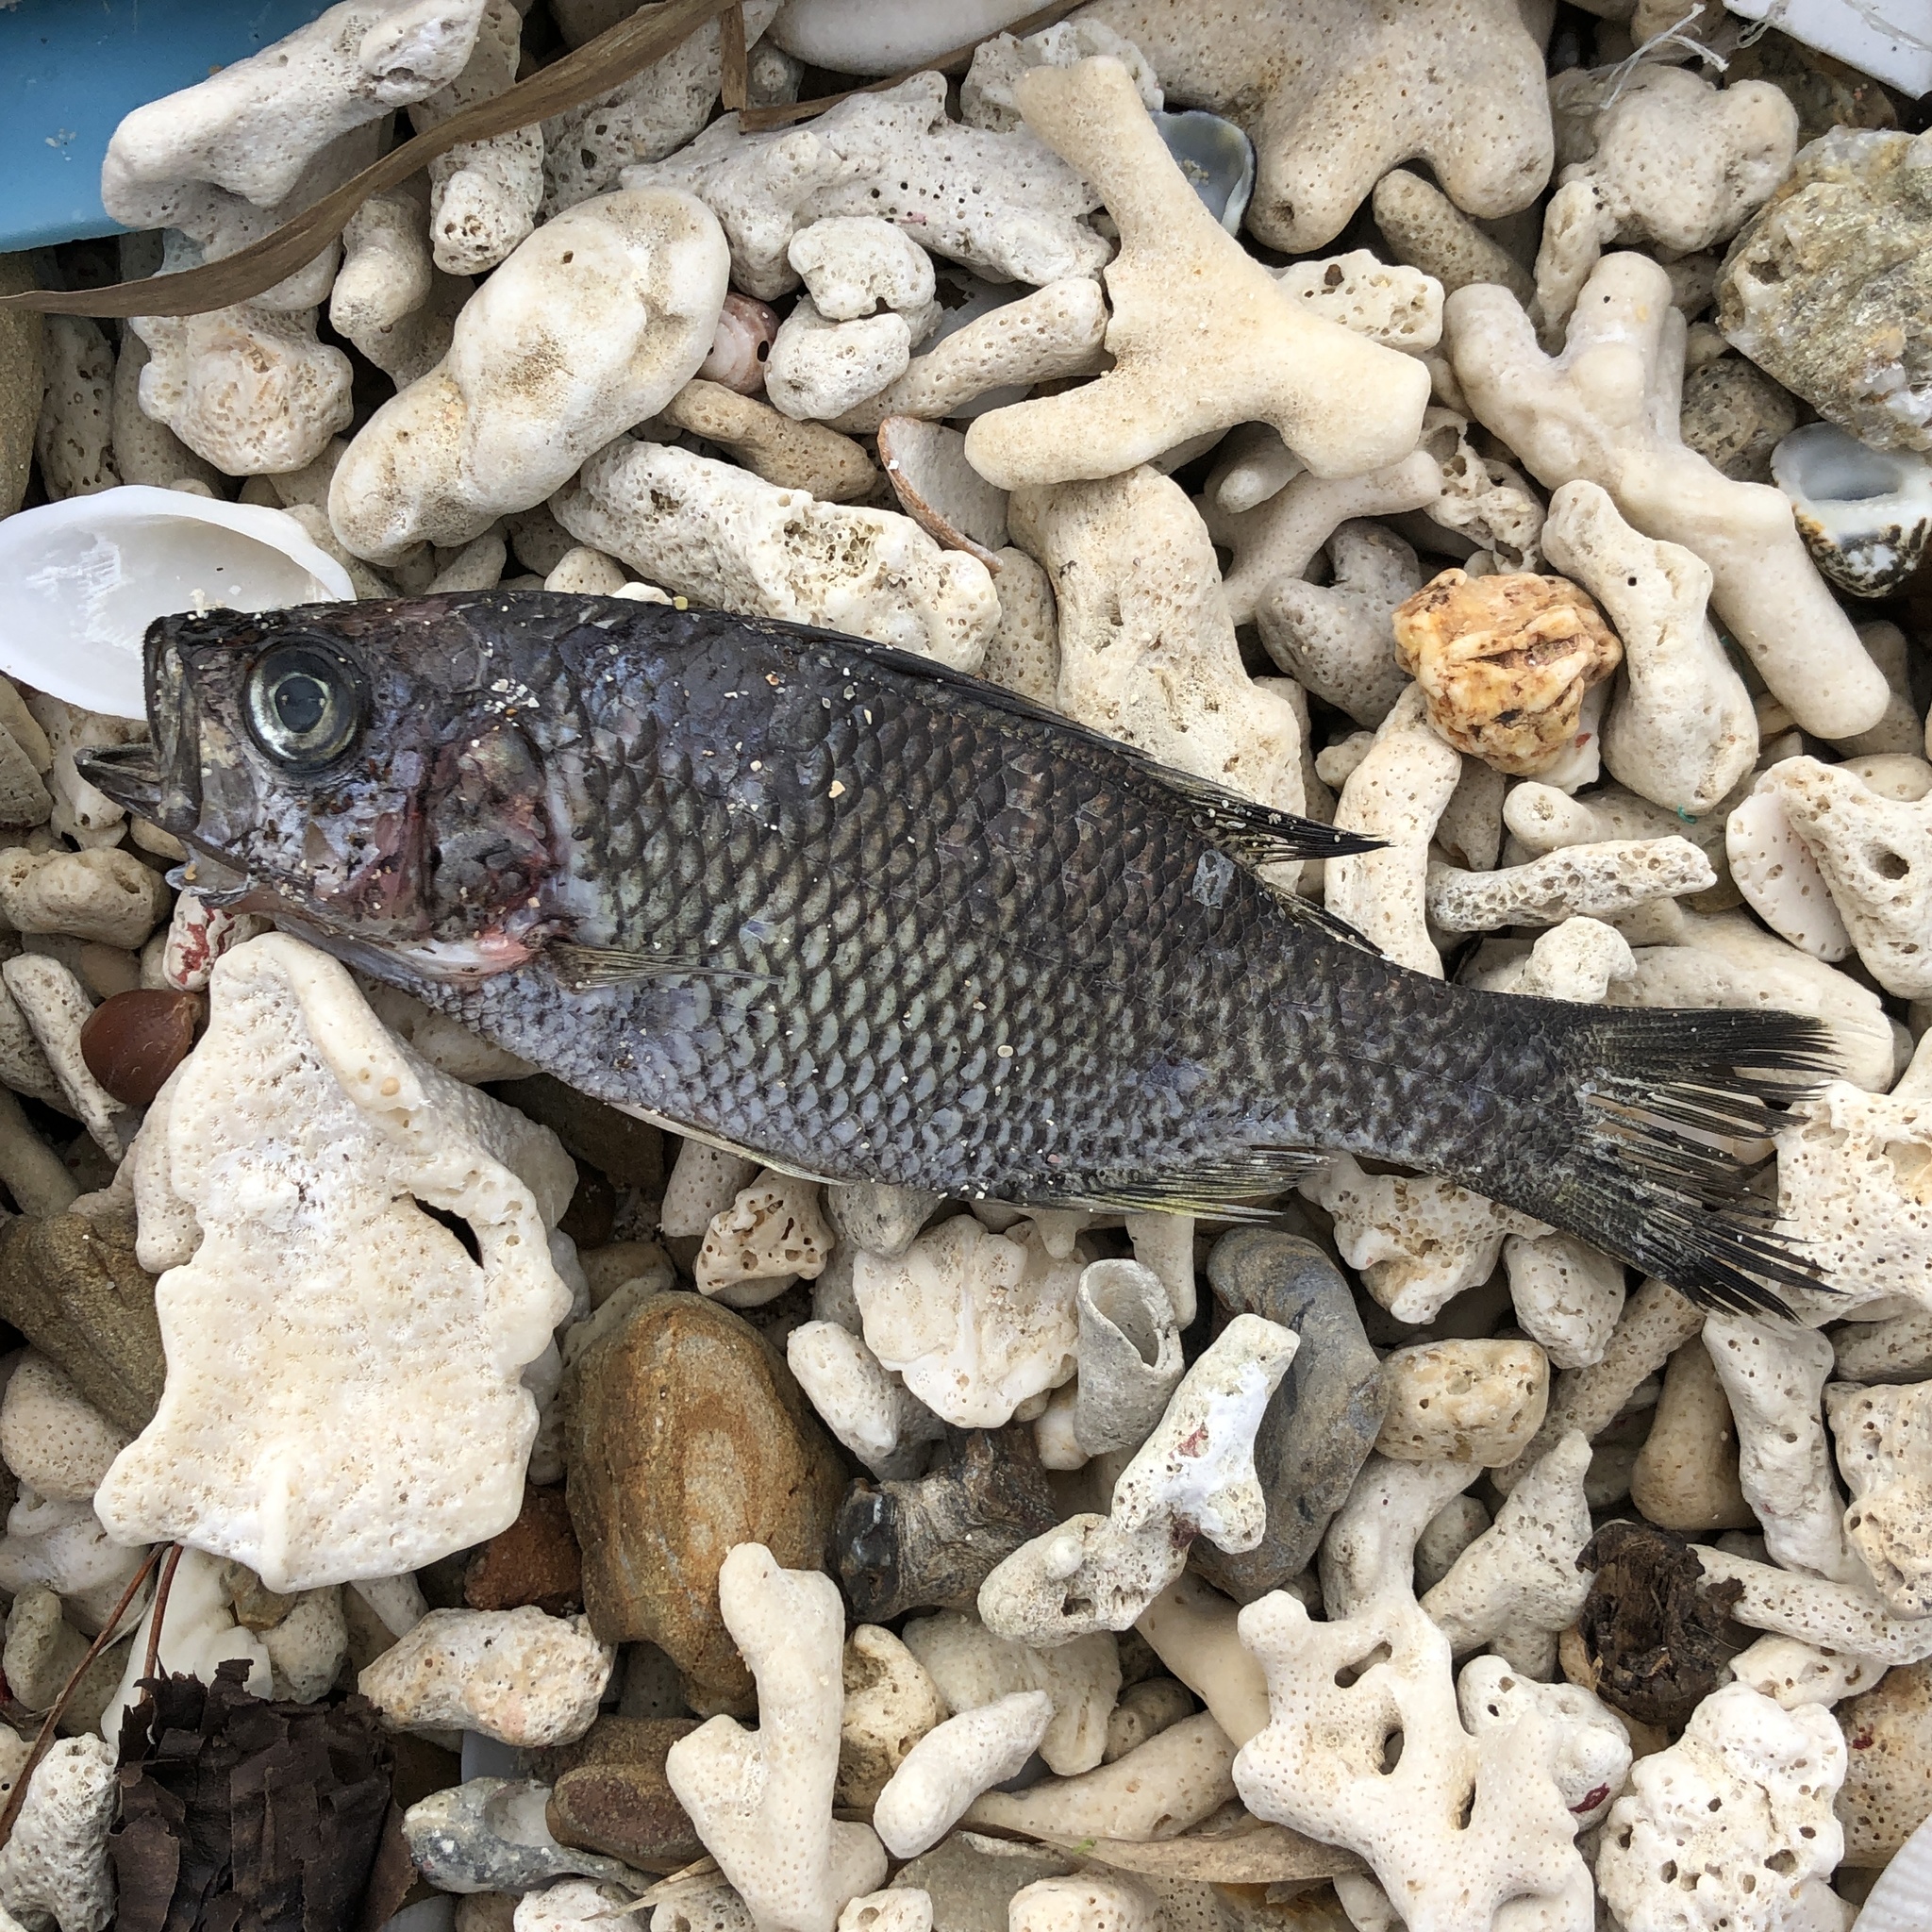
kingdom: Animalia
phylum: Chordata
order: Perciformes
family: Kuhliidae
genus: Kuhlia
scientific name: Kuhlia rupestris
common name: Rock flagtail
